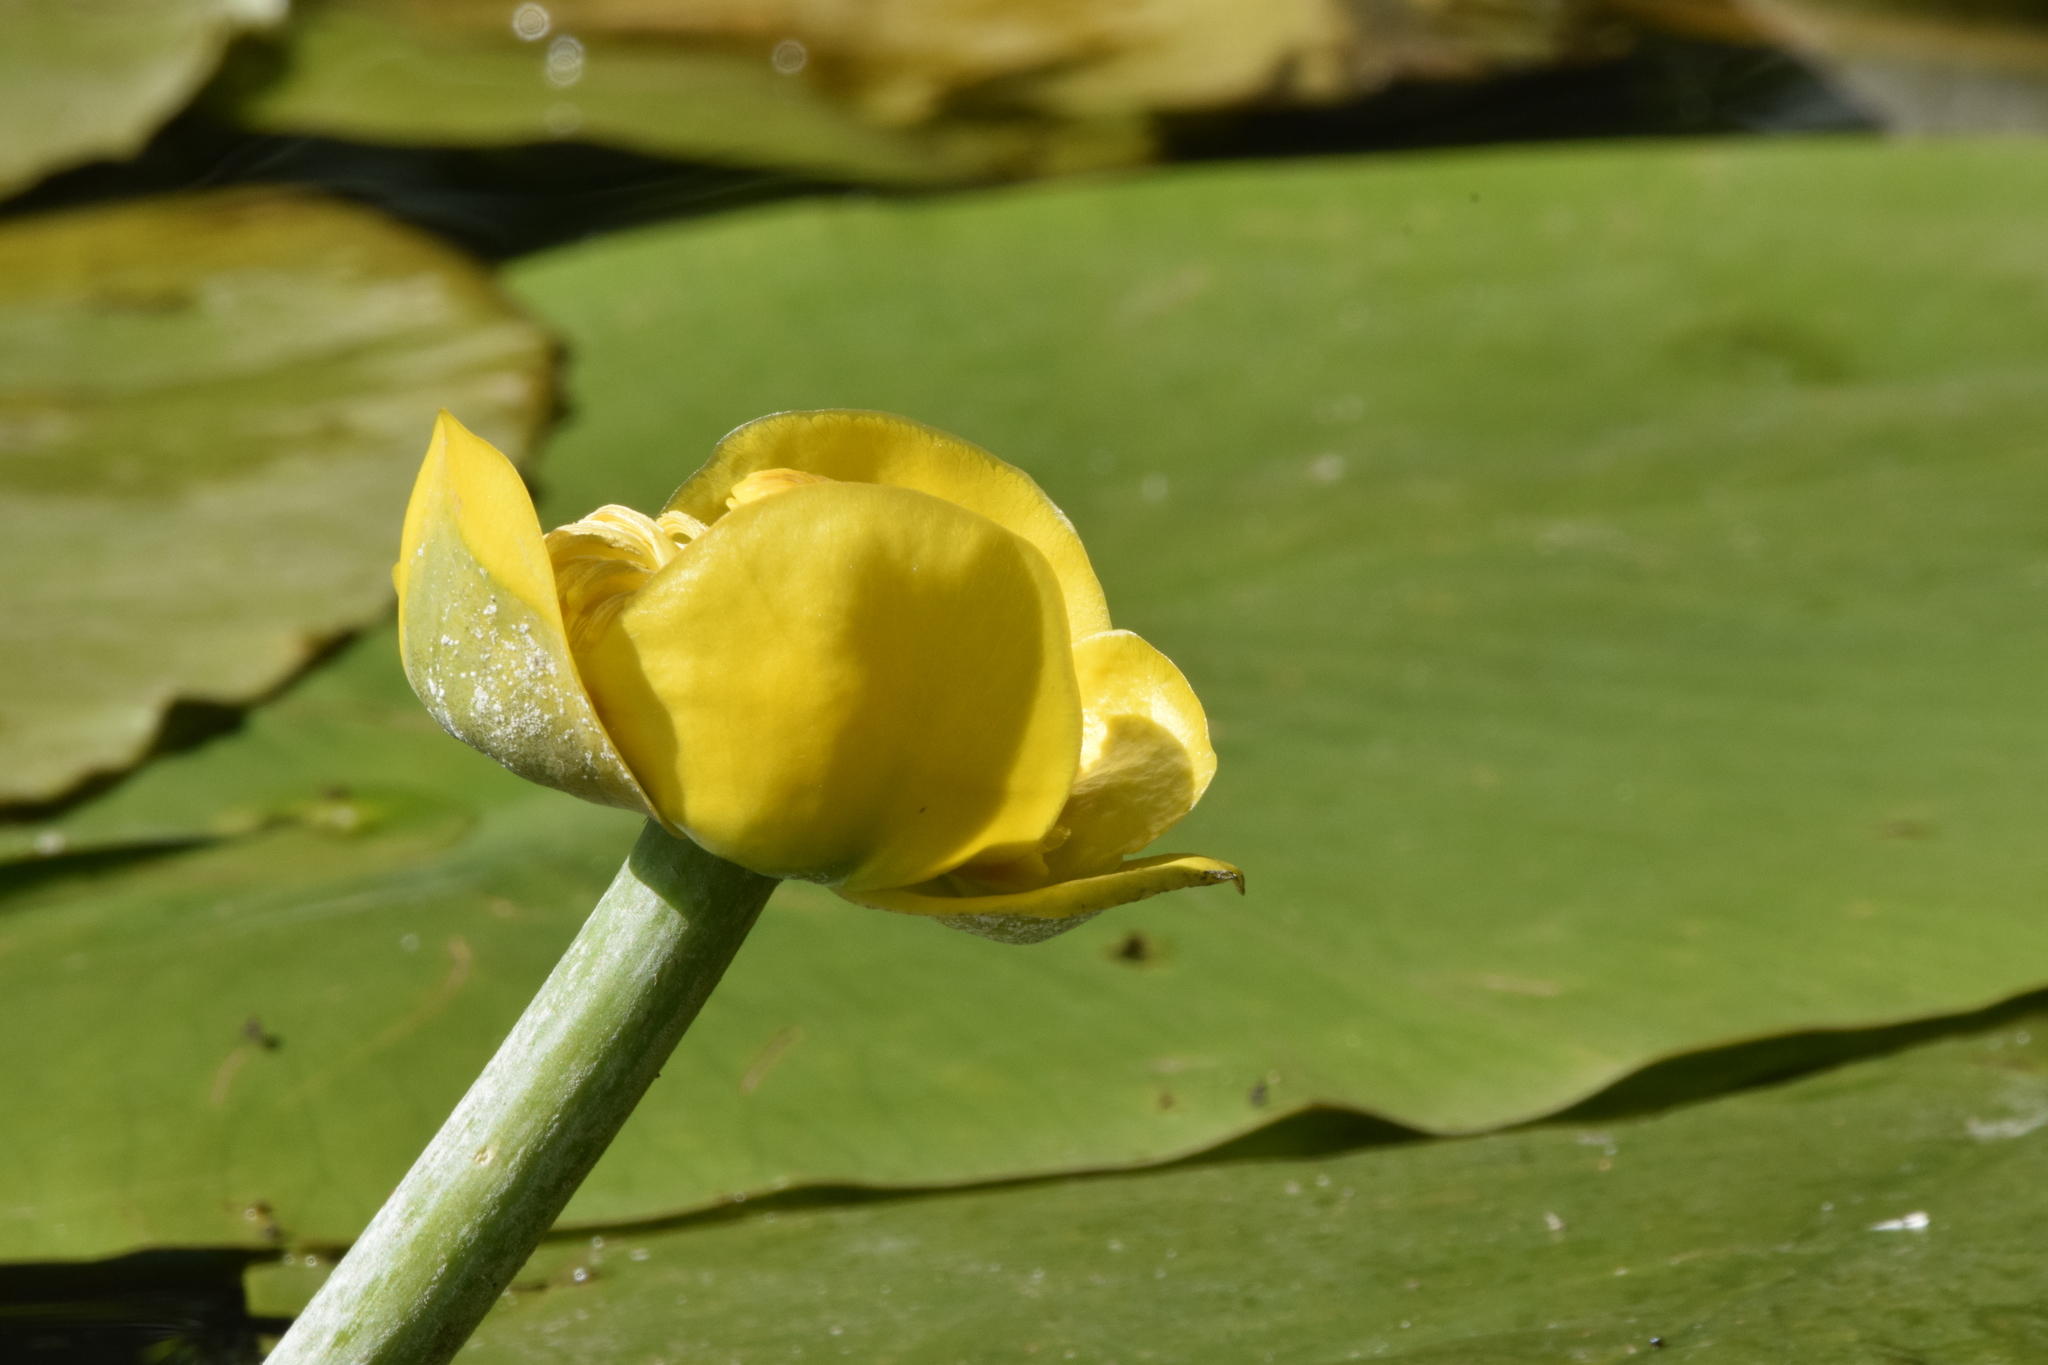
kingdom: Plantae
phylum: Tracheophyta
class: Magnoliopsida
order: Nymphaeales
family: Nymphaeaceae
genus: Nuphar
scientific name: Nuphar lutea
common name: Yellow water-lily
